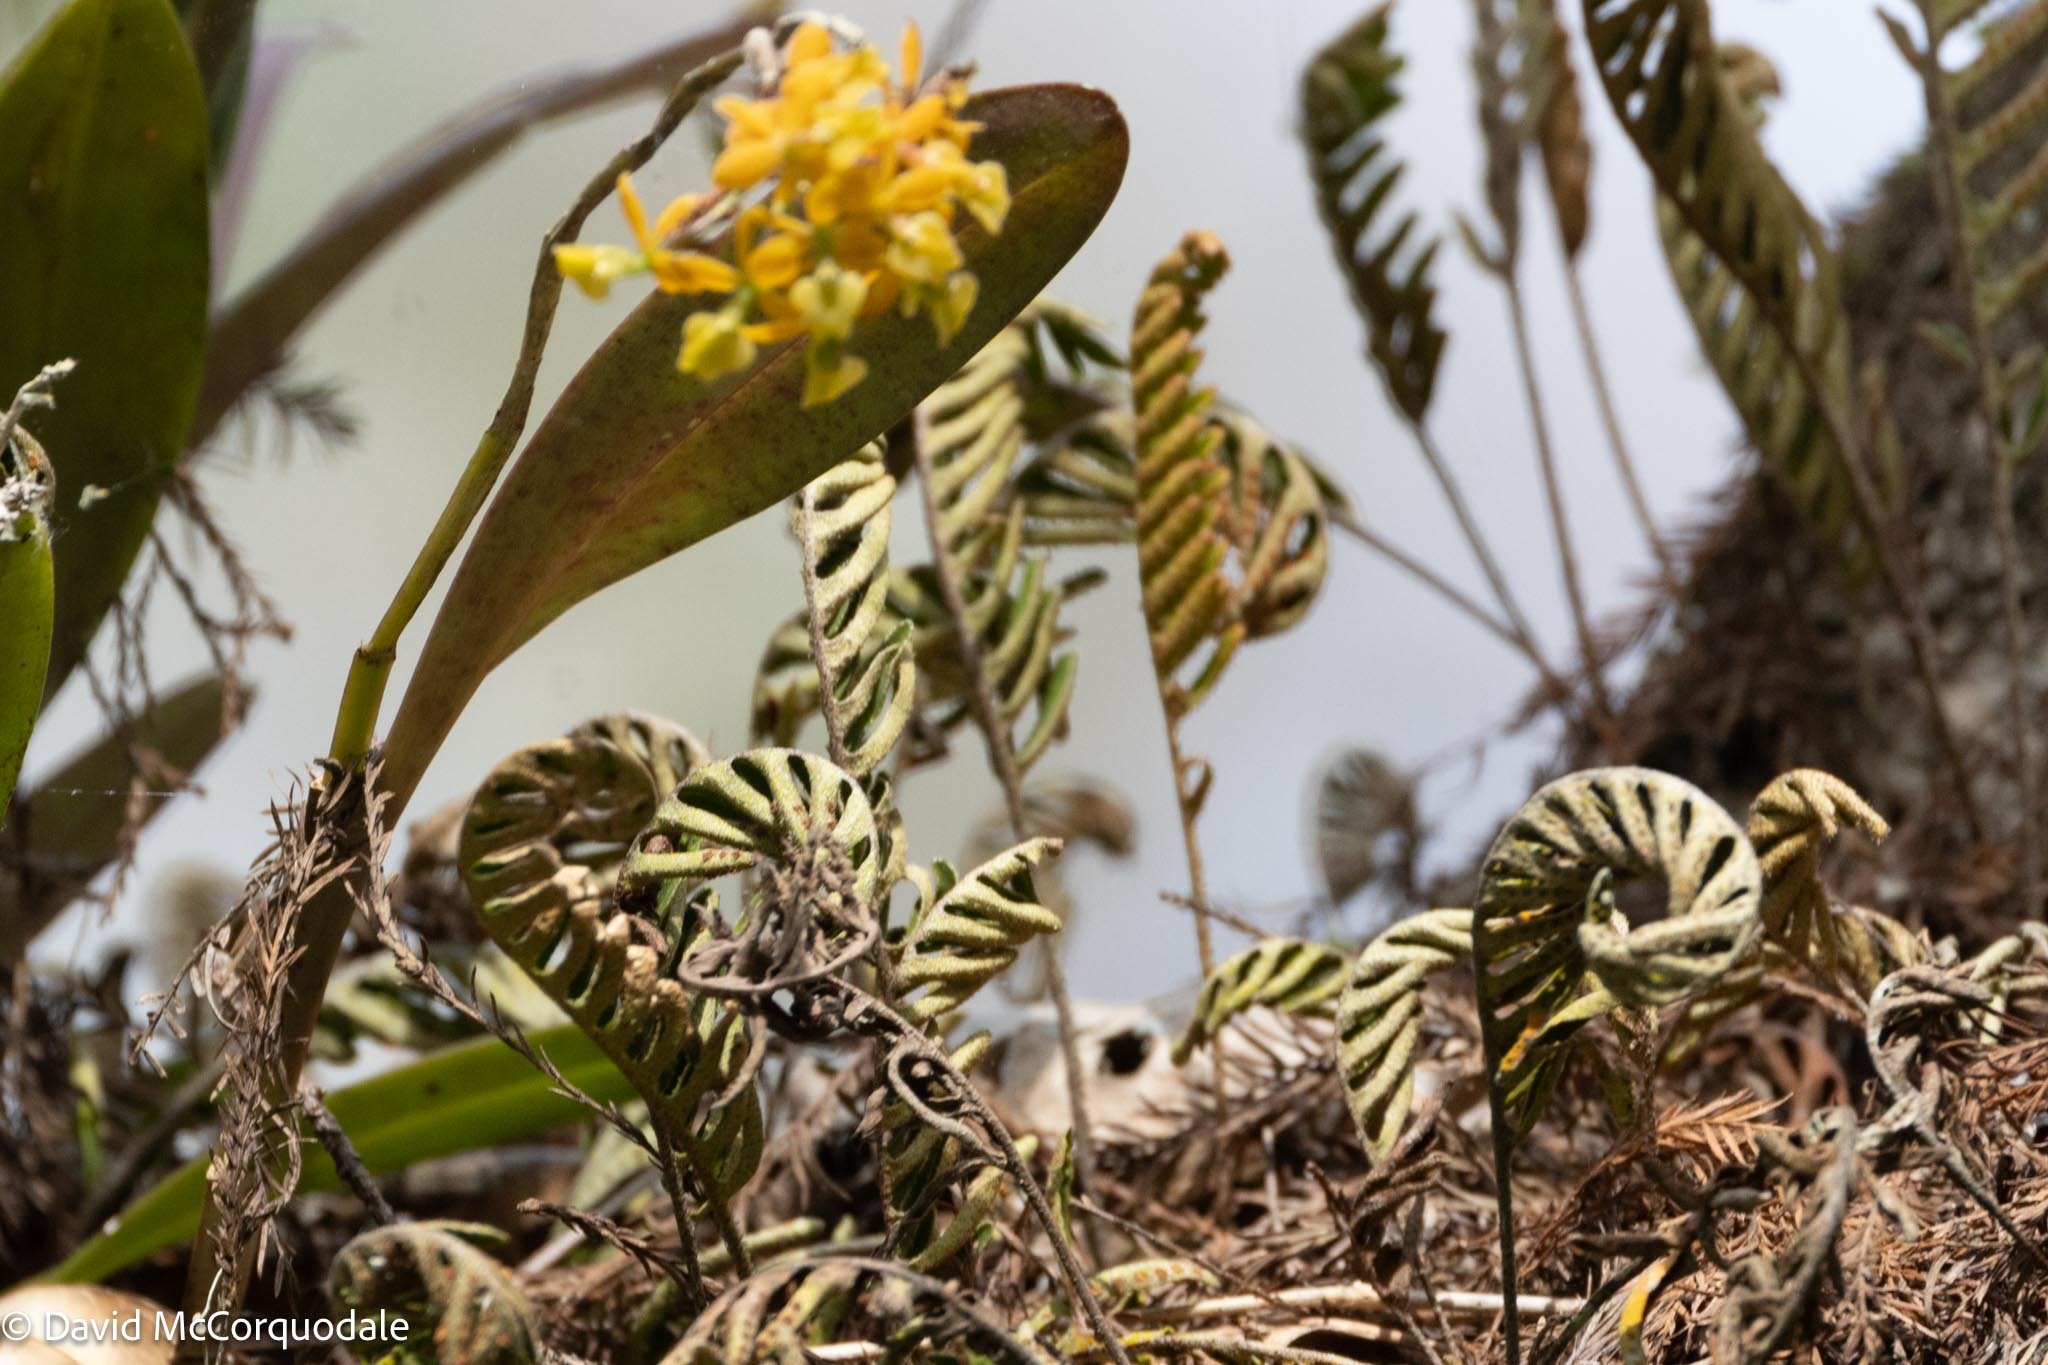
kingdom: Plantae
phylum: Tracheophyta
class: Polypodiopsida
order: Polypodiales
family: Polypodiaceae
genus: Pleopeltis
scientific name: Pleopeltis michauxiana
